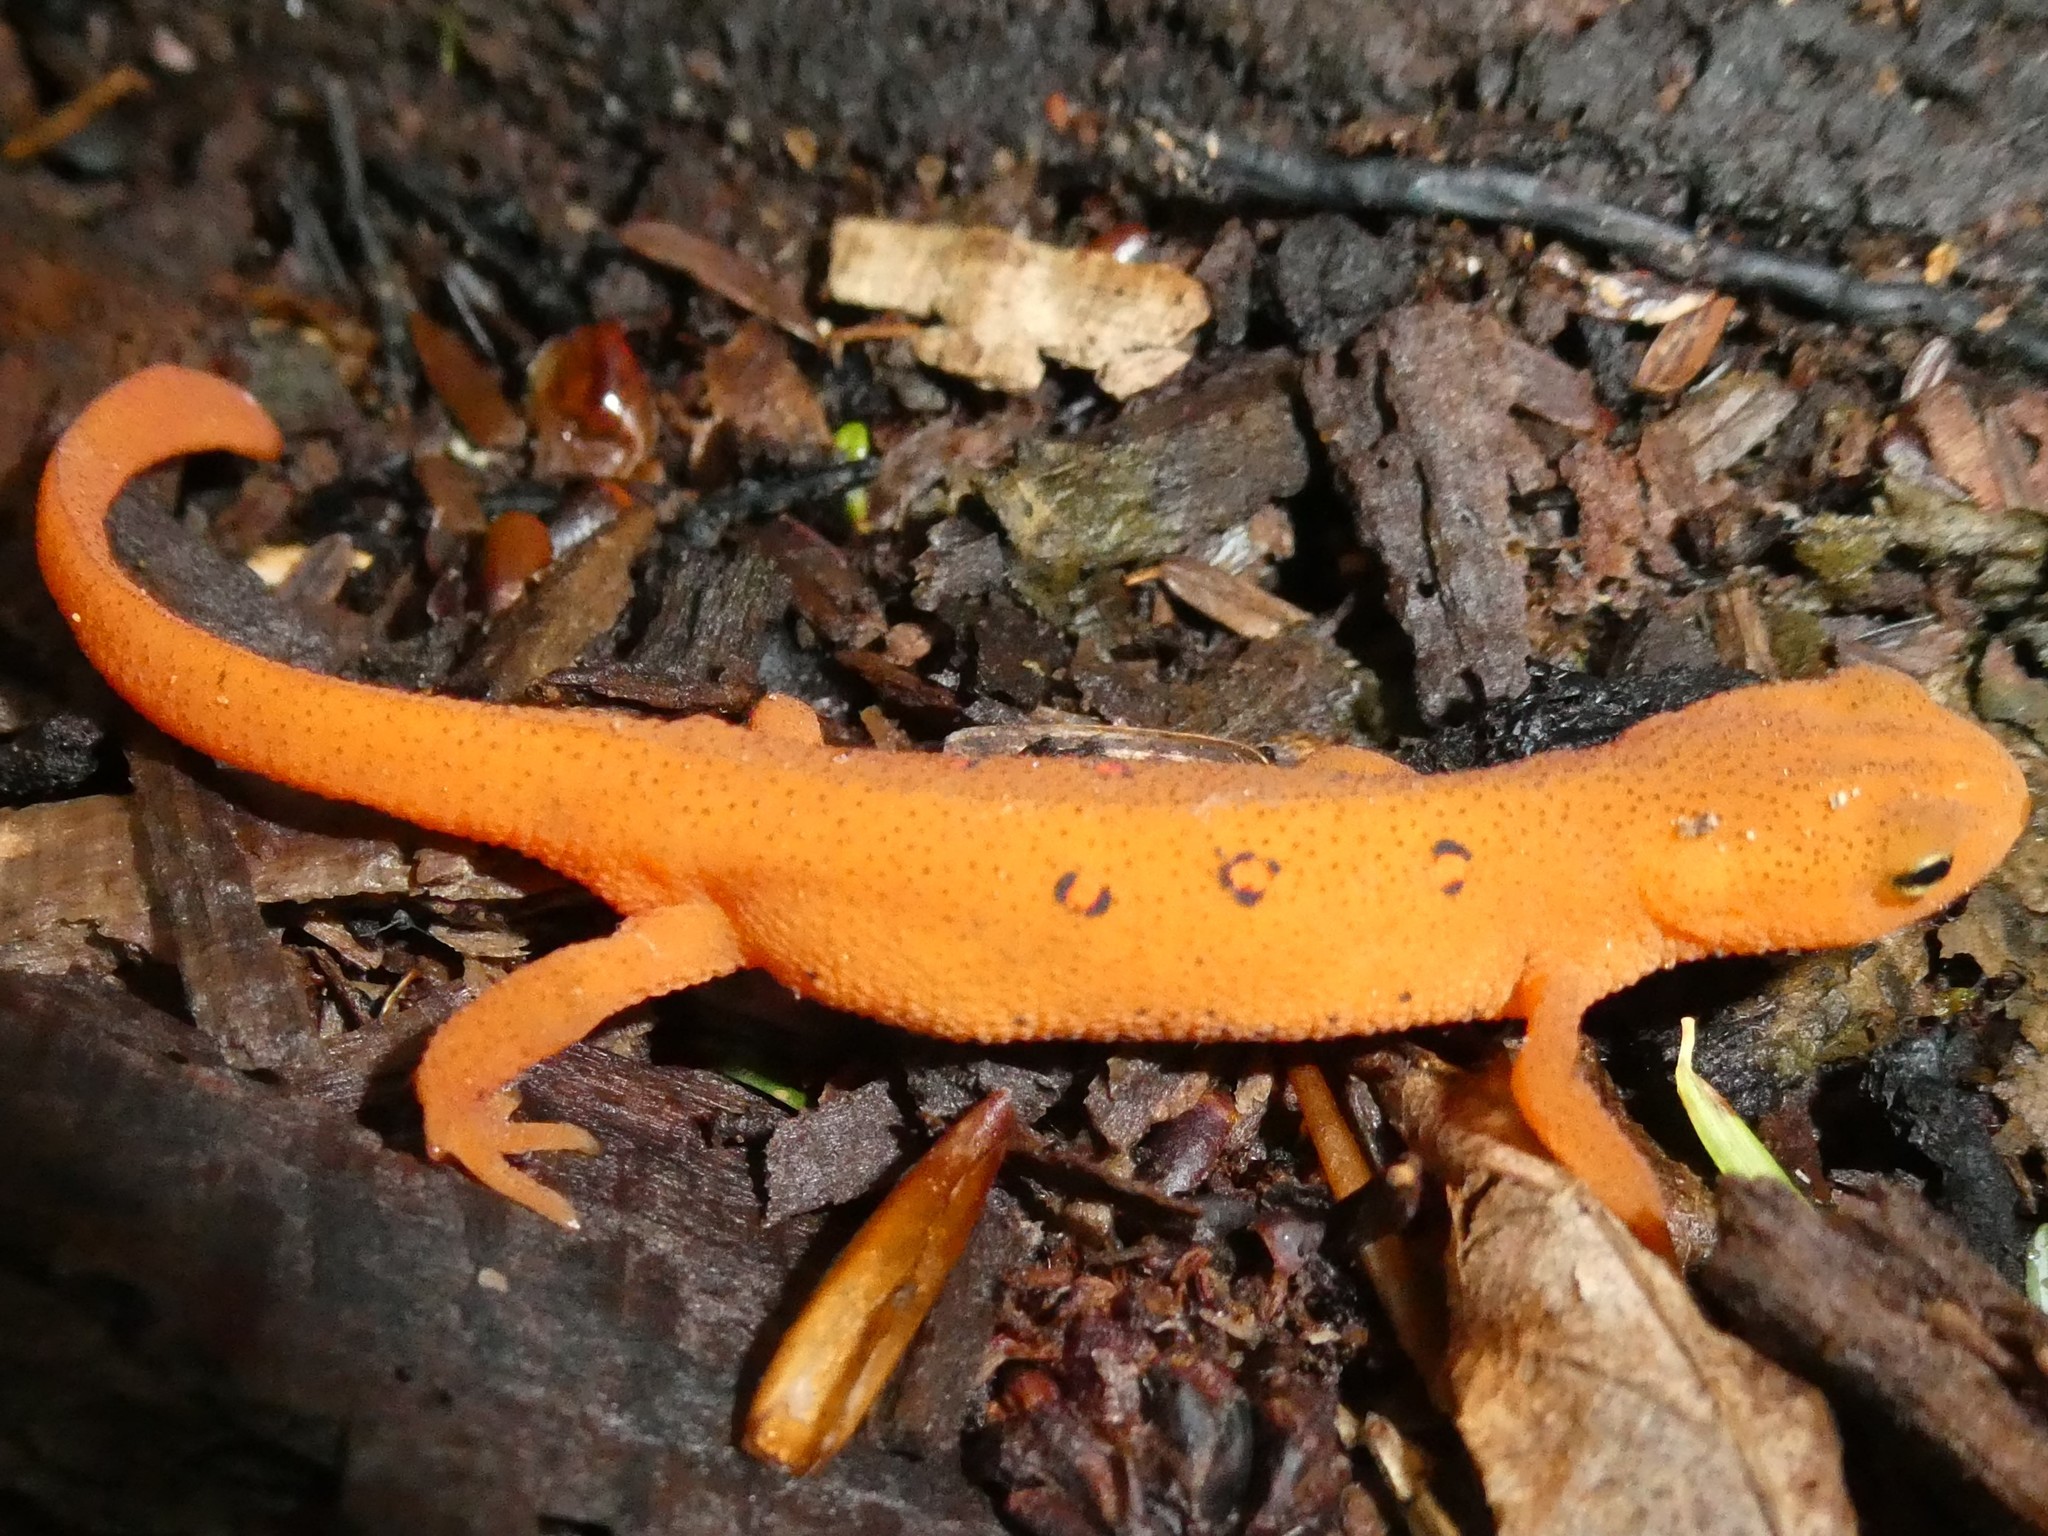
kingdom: Animalia
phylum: Chordata
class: Amphibia
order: Caudata
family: Salamandridae
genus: Notophthalmus
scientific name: Notophthalmus viridescens
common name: Eastern newt
